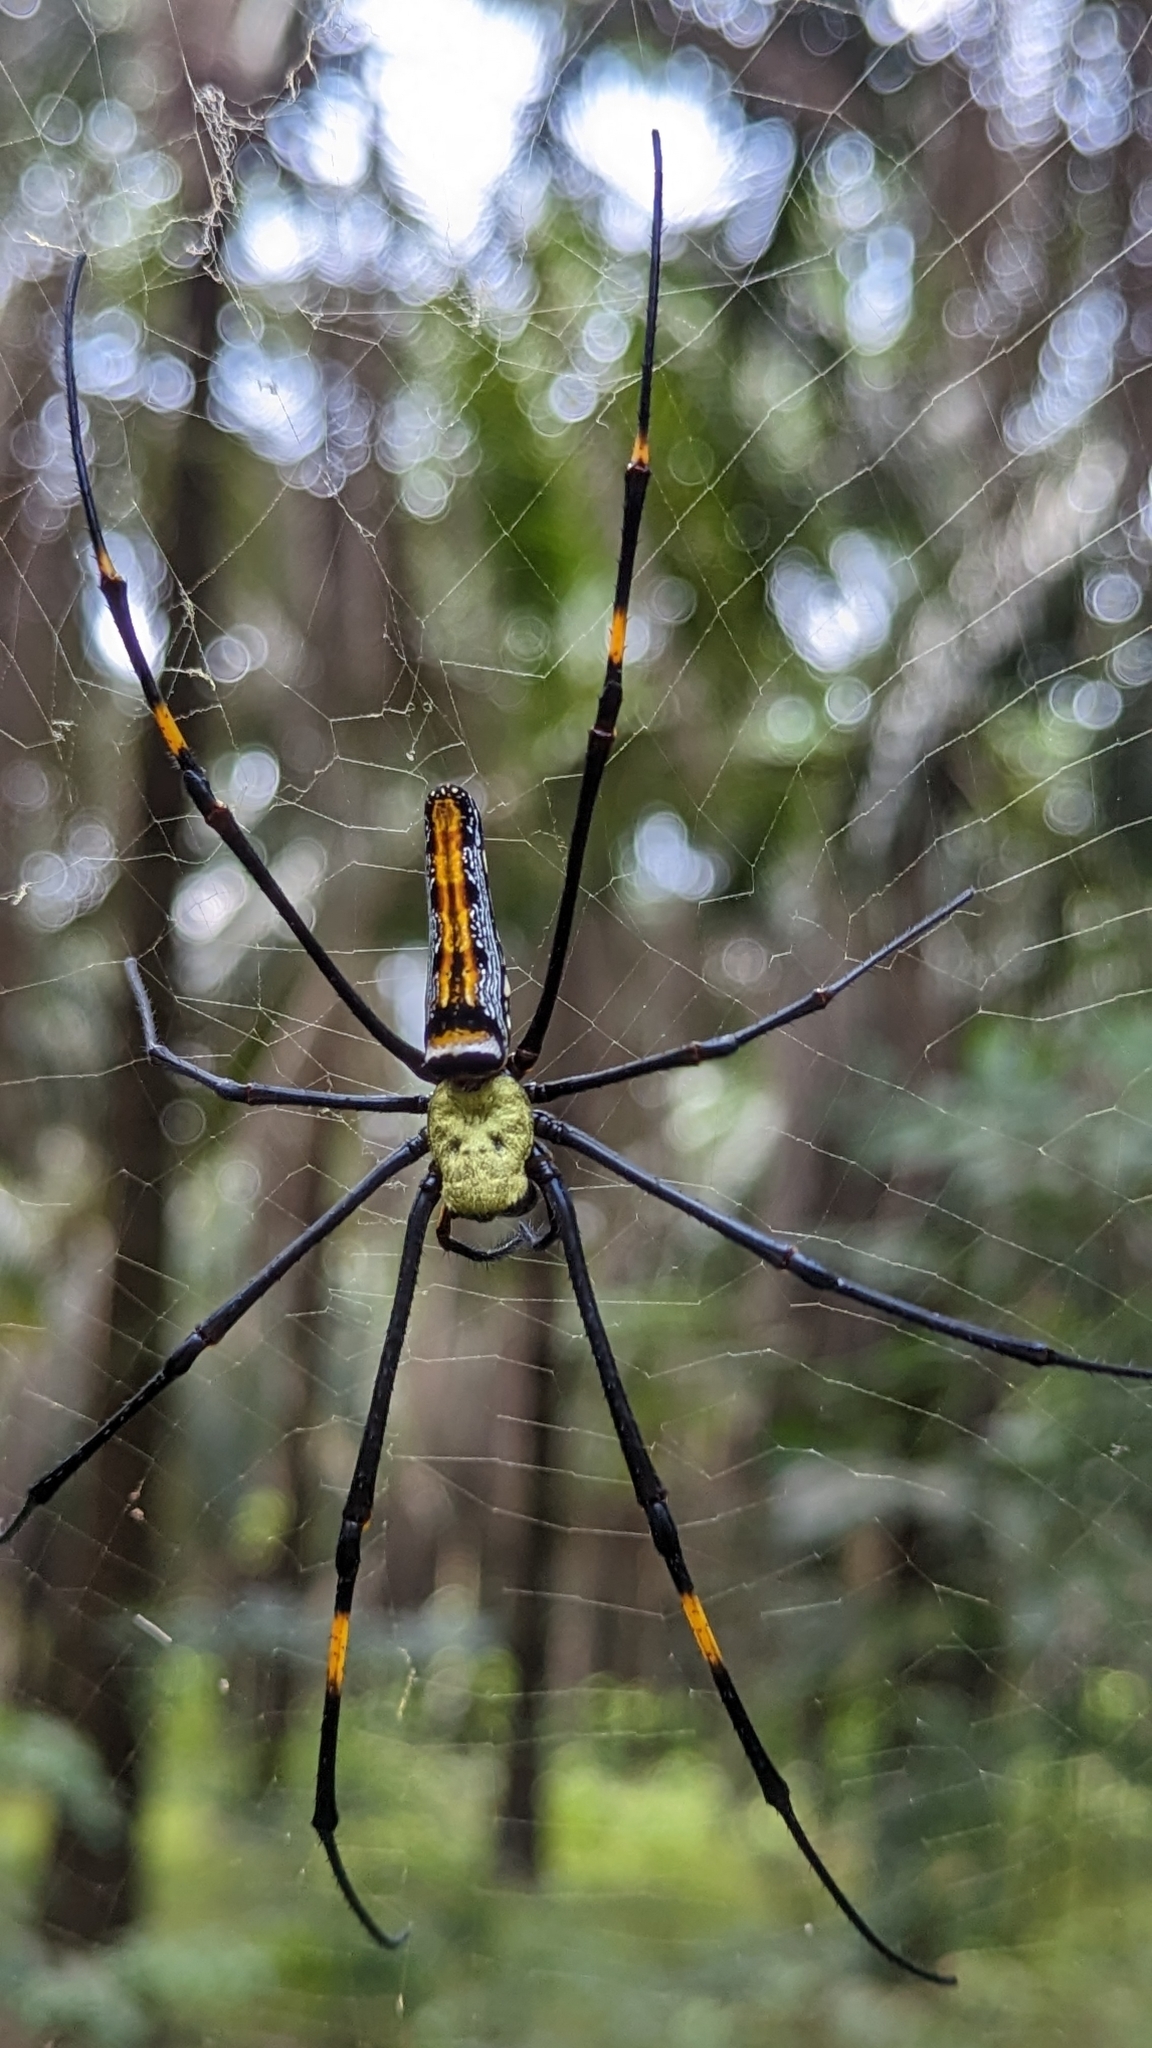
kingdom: Animalia
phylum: Arthropoda
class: Arachnida
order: Araneae
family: Araneidae
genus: Nephila
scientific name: Nephila pilipes
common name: Giant golden orb weaver
